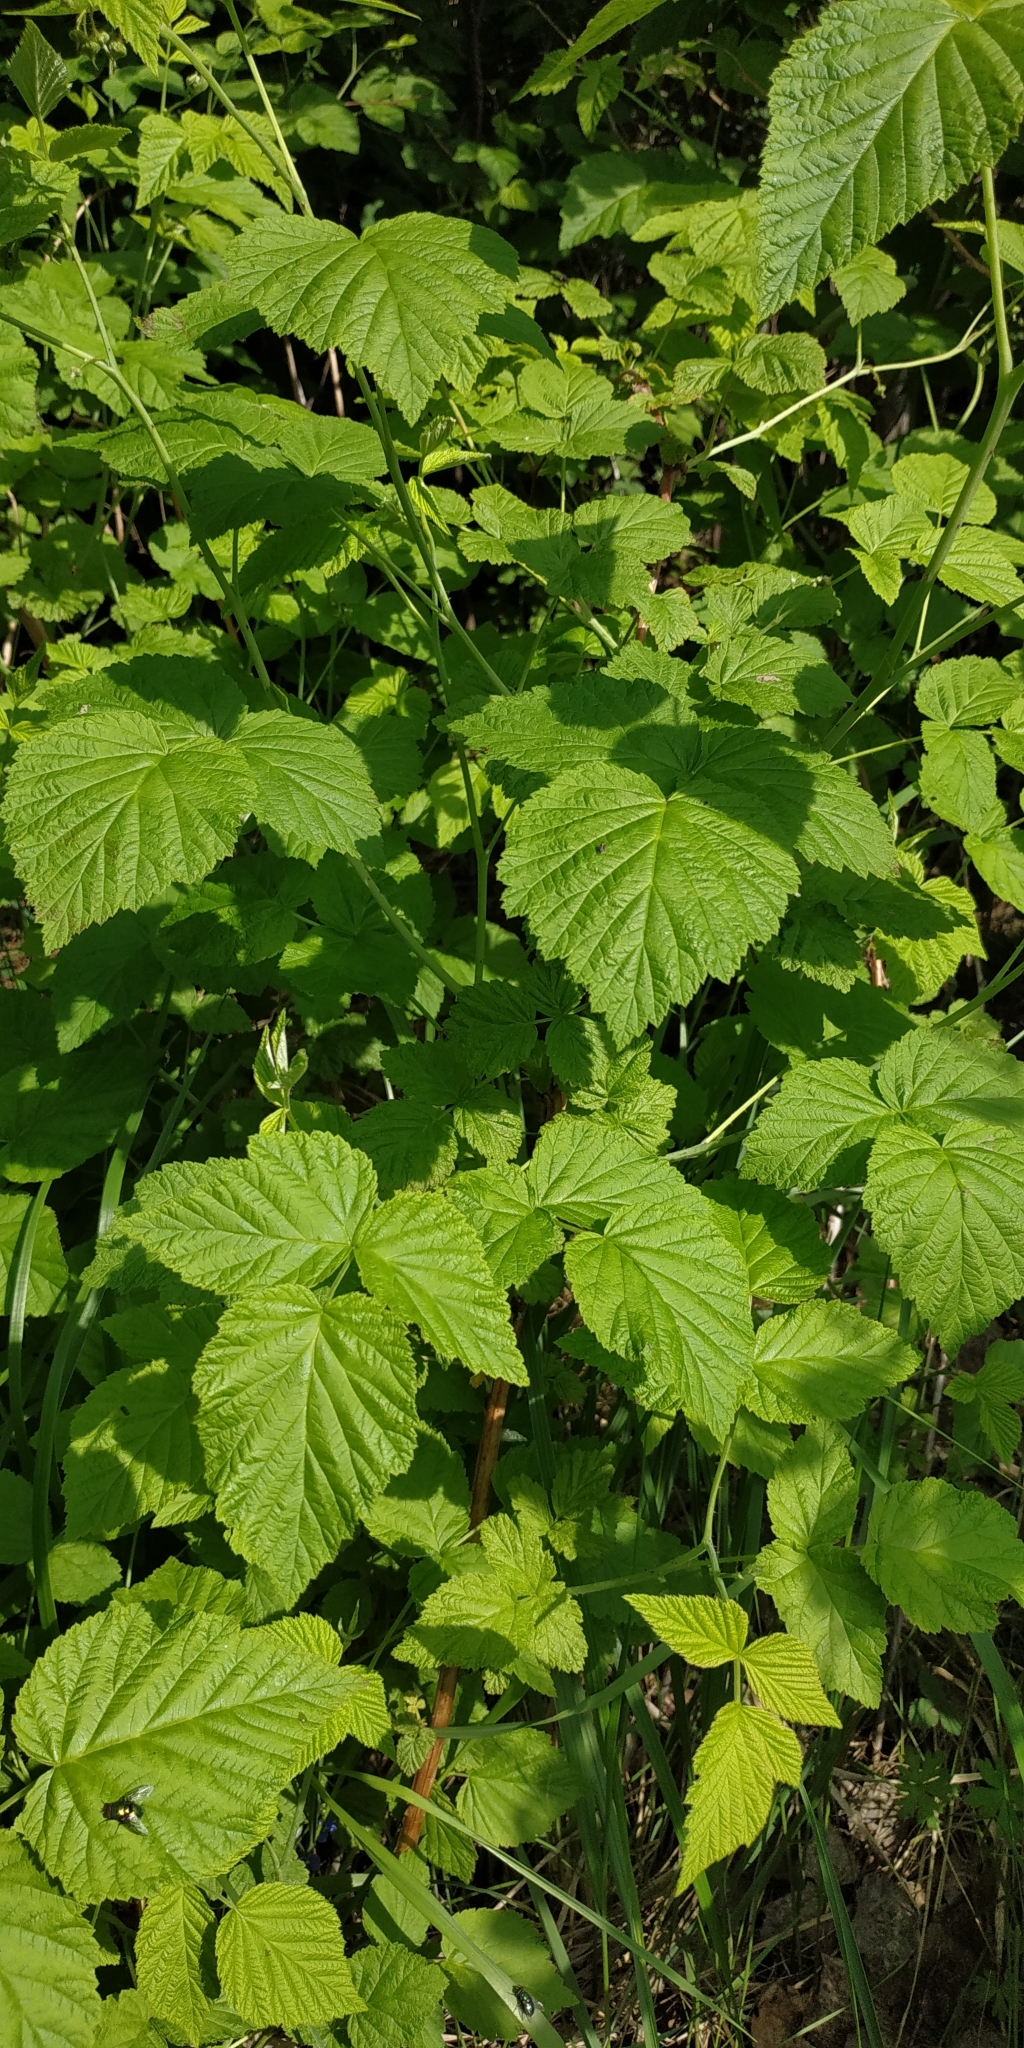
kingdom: Plantae
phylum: Tracheophyta
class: Magnoliopsida
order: Rosales
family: Rosaceae
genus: Rubus
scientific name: Rubus idaeus
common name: Raspberry
